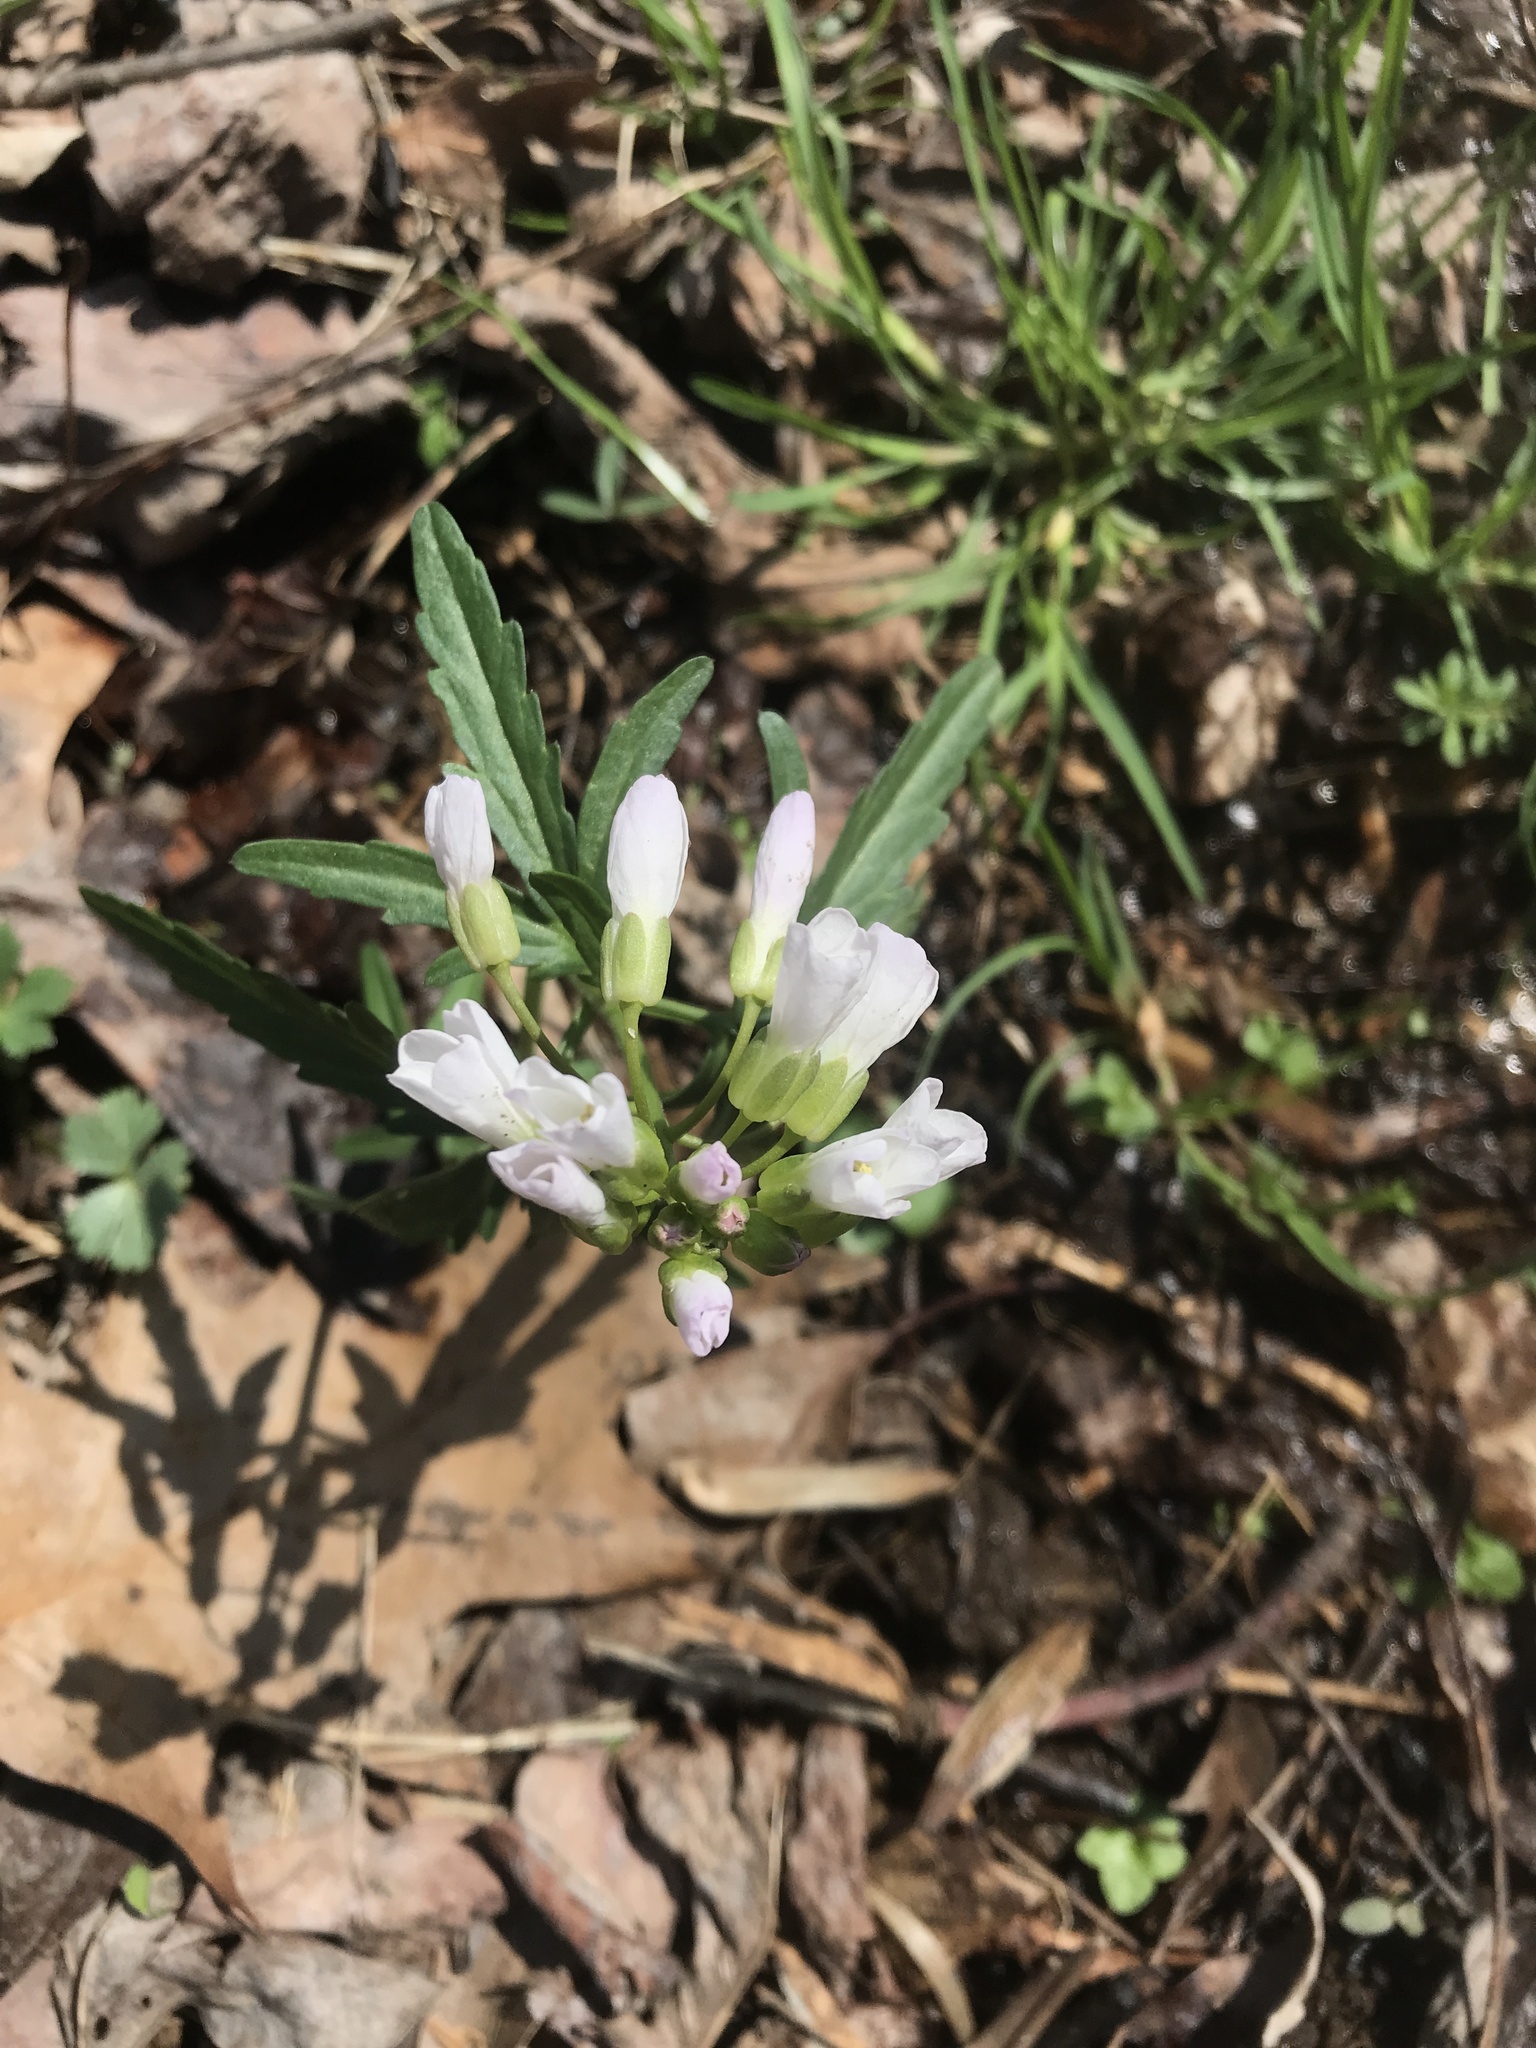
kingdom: Plantae
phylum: Tracheophyta
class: Magnoliopsida
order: Brassicales
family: Brassicaceae
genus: Cardamine
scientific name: Cardamine concatenata
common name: Cut-leaf toothcup
